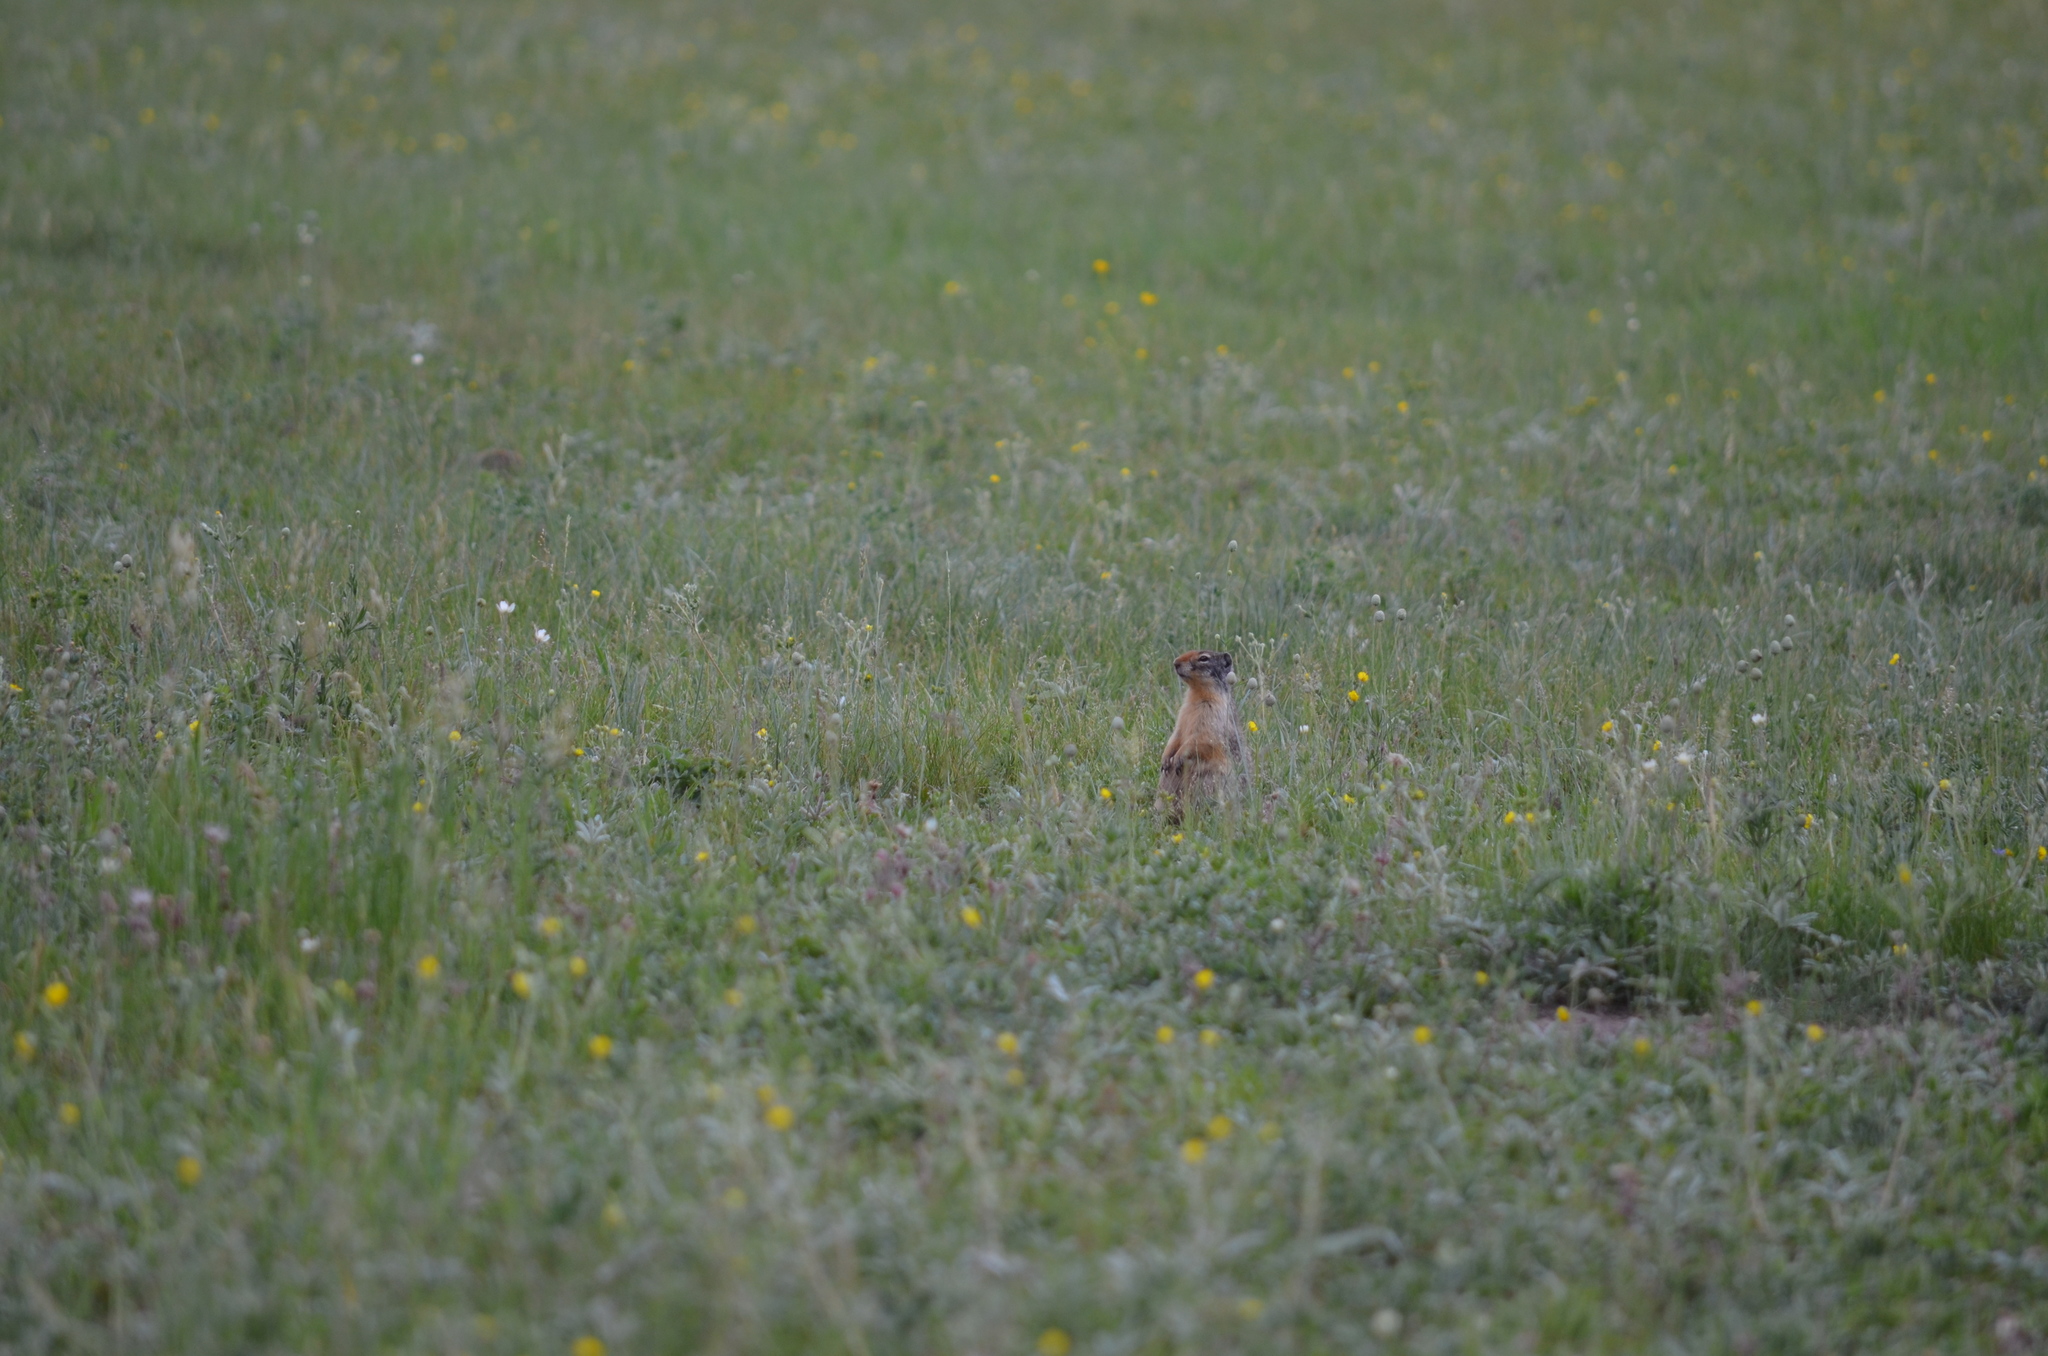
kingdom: Animalia
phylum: Chordata
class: Mammalia
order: Rodentia
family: Sciuridae
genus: Urocitellus
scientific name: Urocitellus columbianus
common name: Columbian ground squirrel
